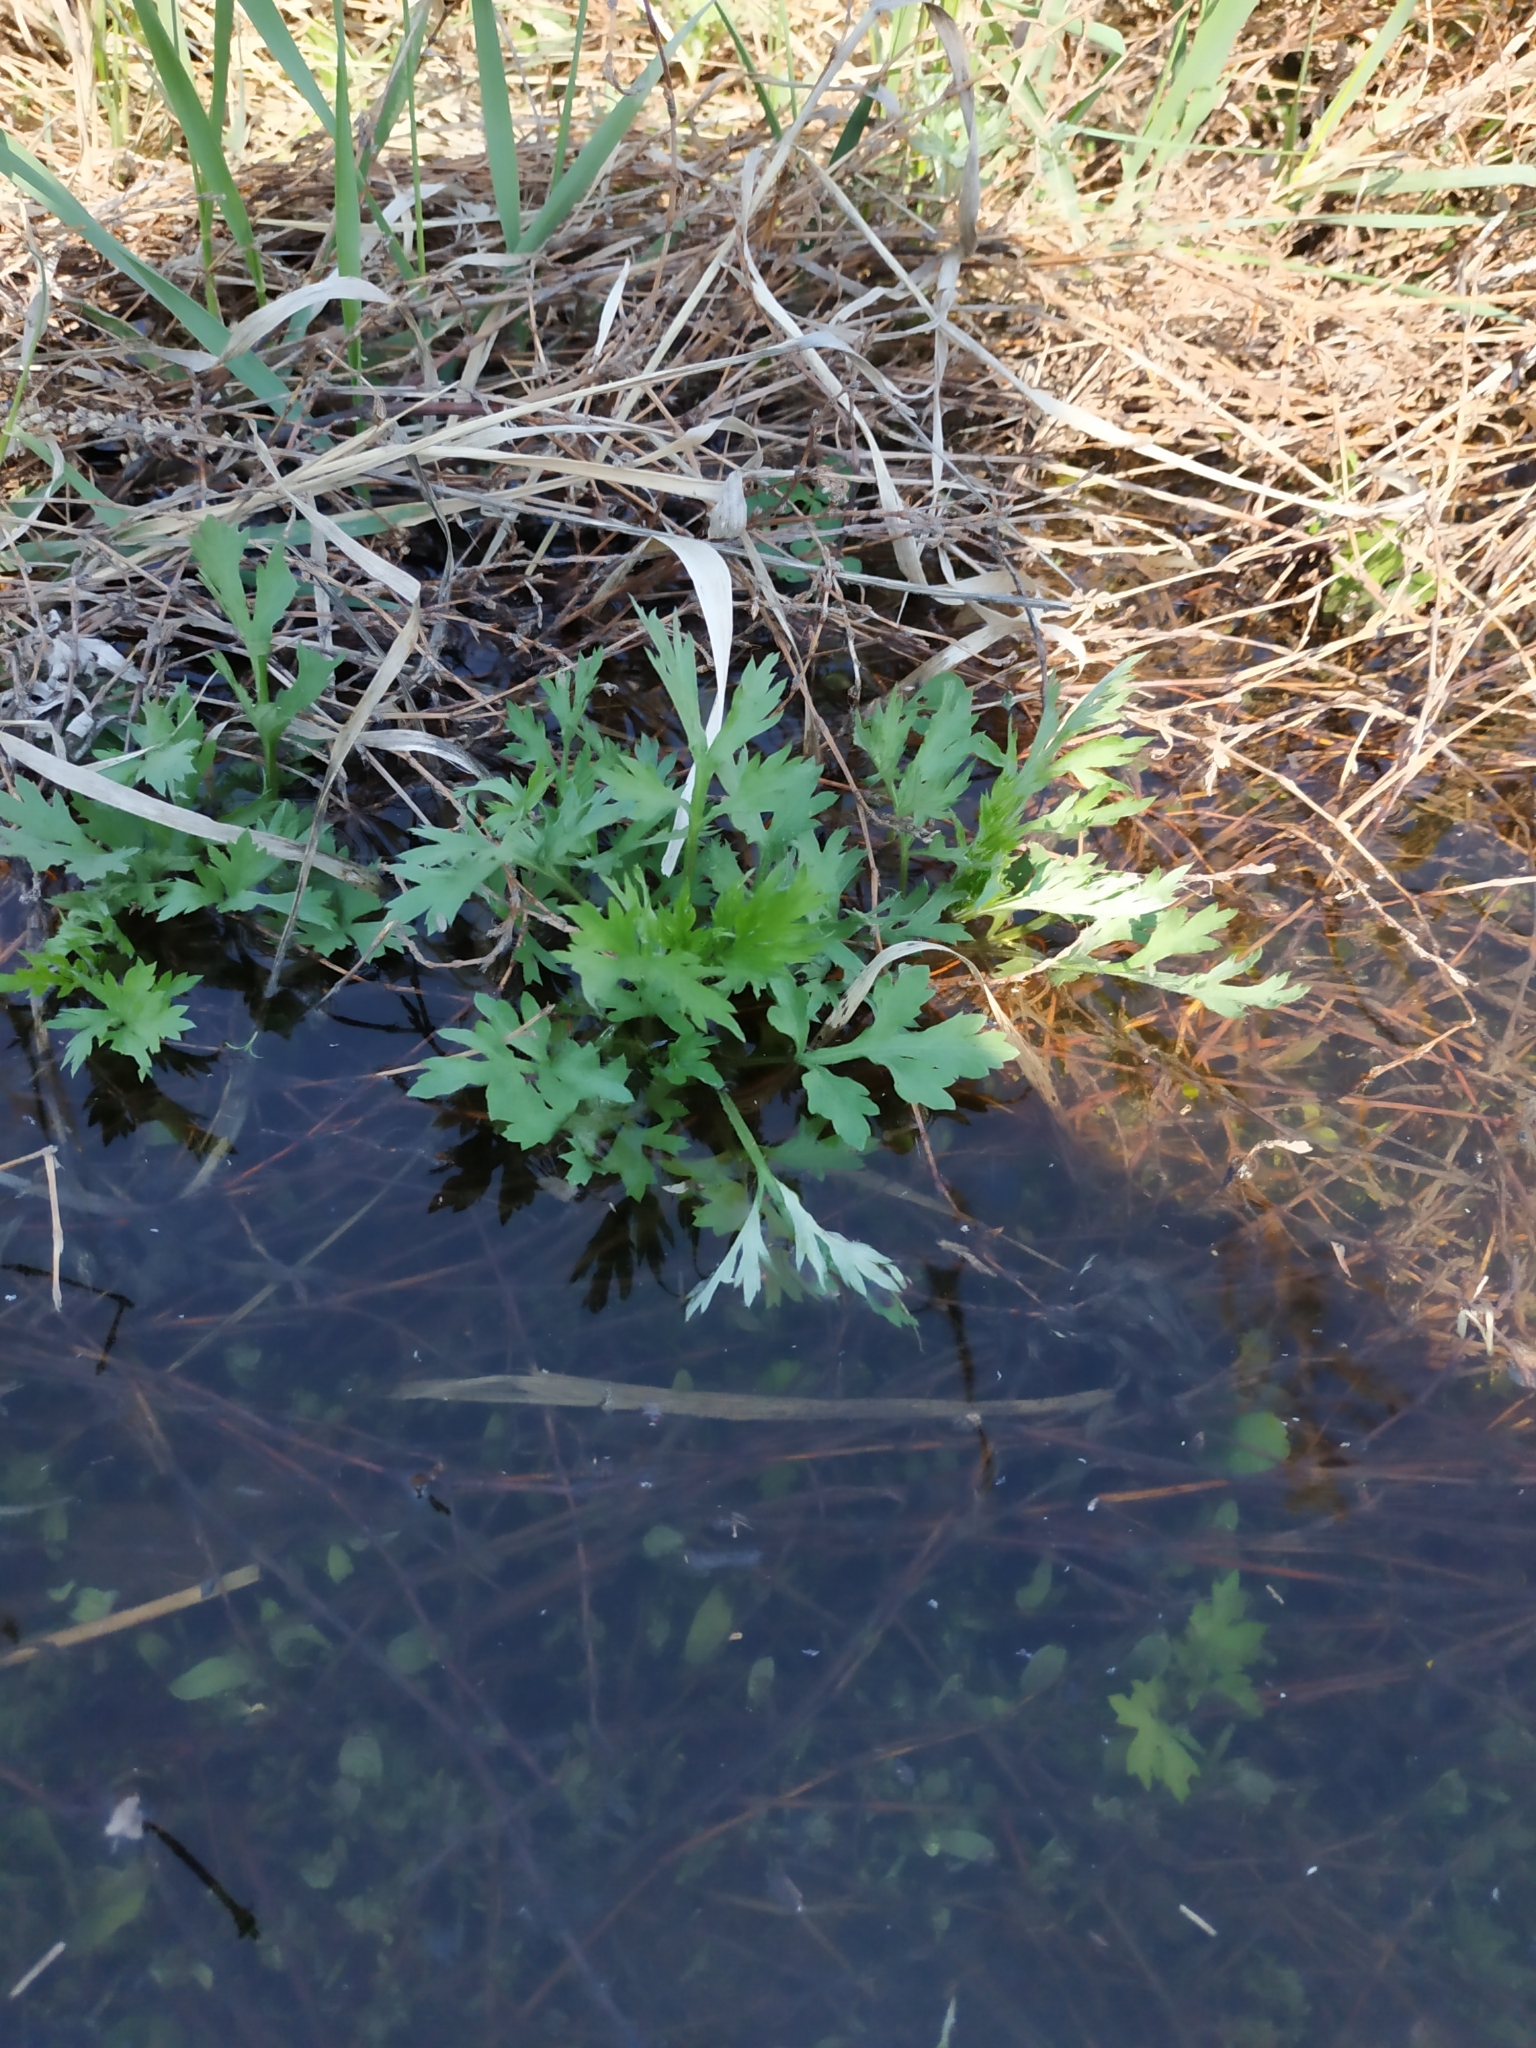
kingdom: Plantae
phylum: Tracheophyta
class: Magnoliopsida
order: Asterales
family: Asteraceae
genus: Artemisia
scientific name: Artemisia vulgaris
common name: Mugwort
